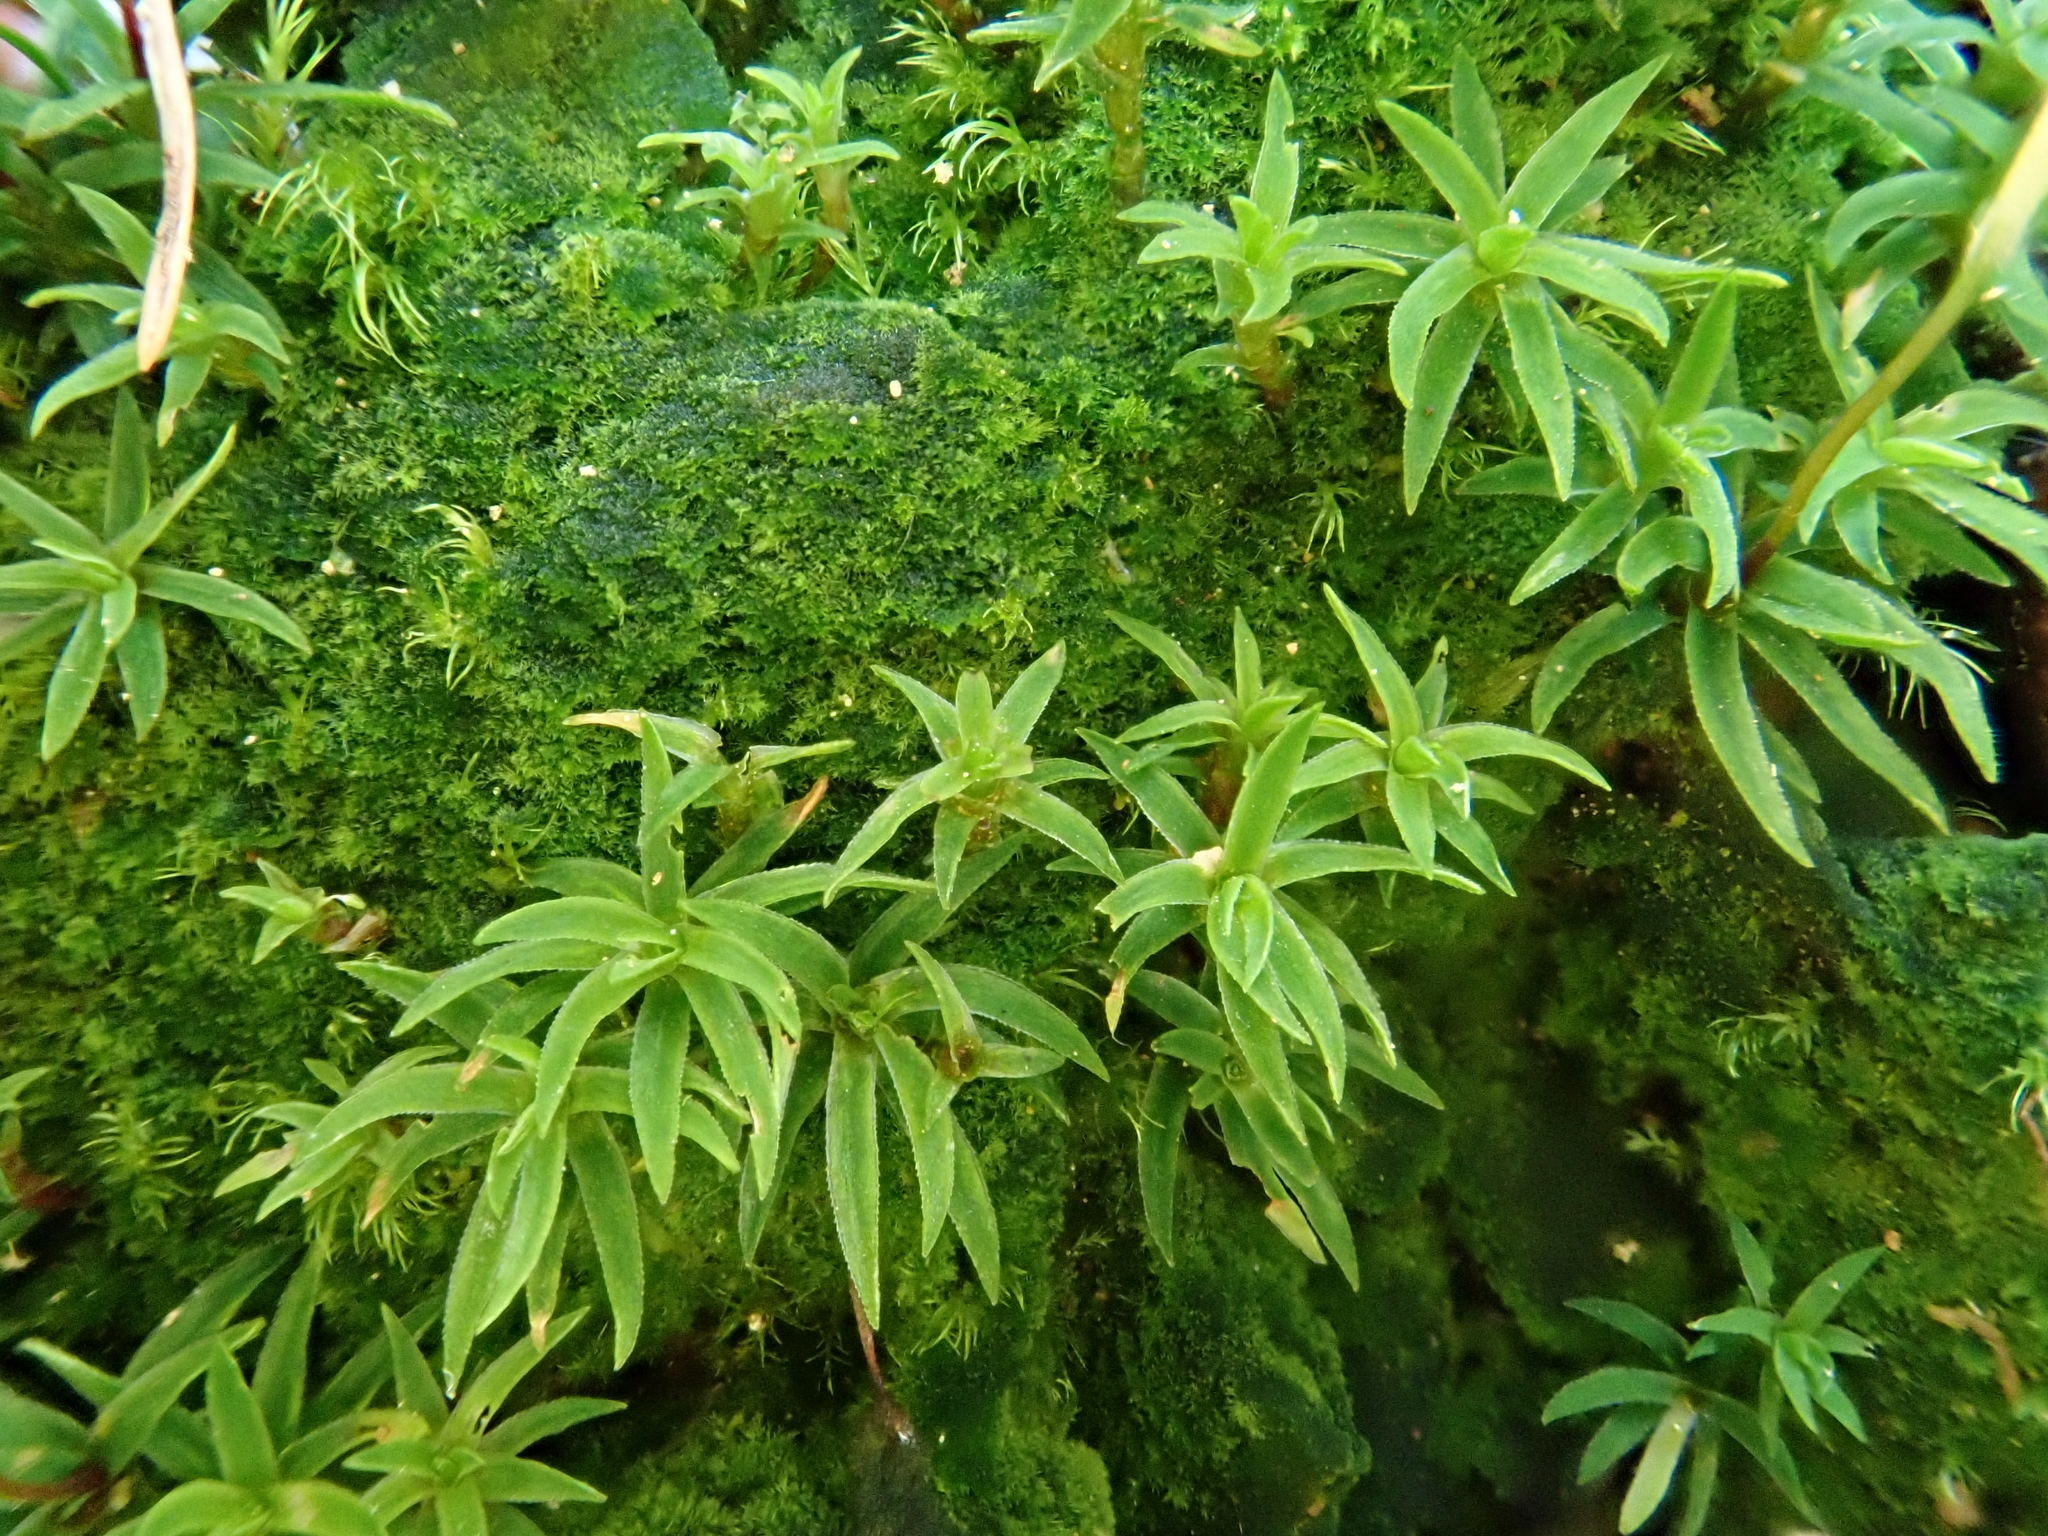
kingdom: Plantae
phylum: Bryophyta
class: Polytrichopsida
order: Polytrichales
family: Polytrichaceae
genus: Pogonatum
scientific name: Pogonatum aloides
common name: Aloe haircap
